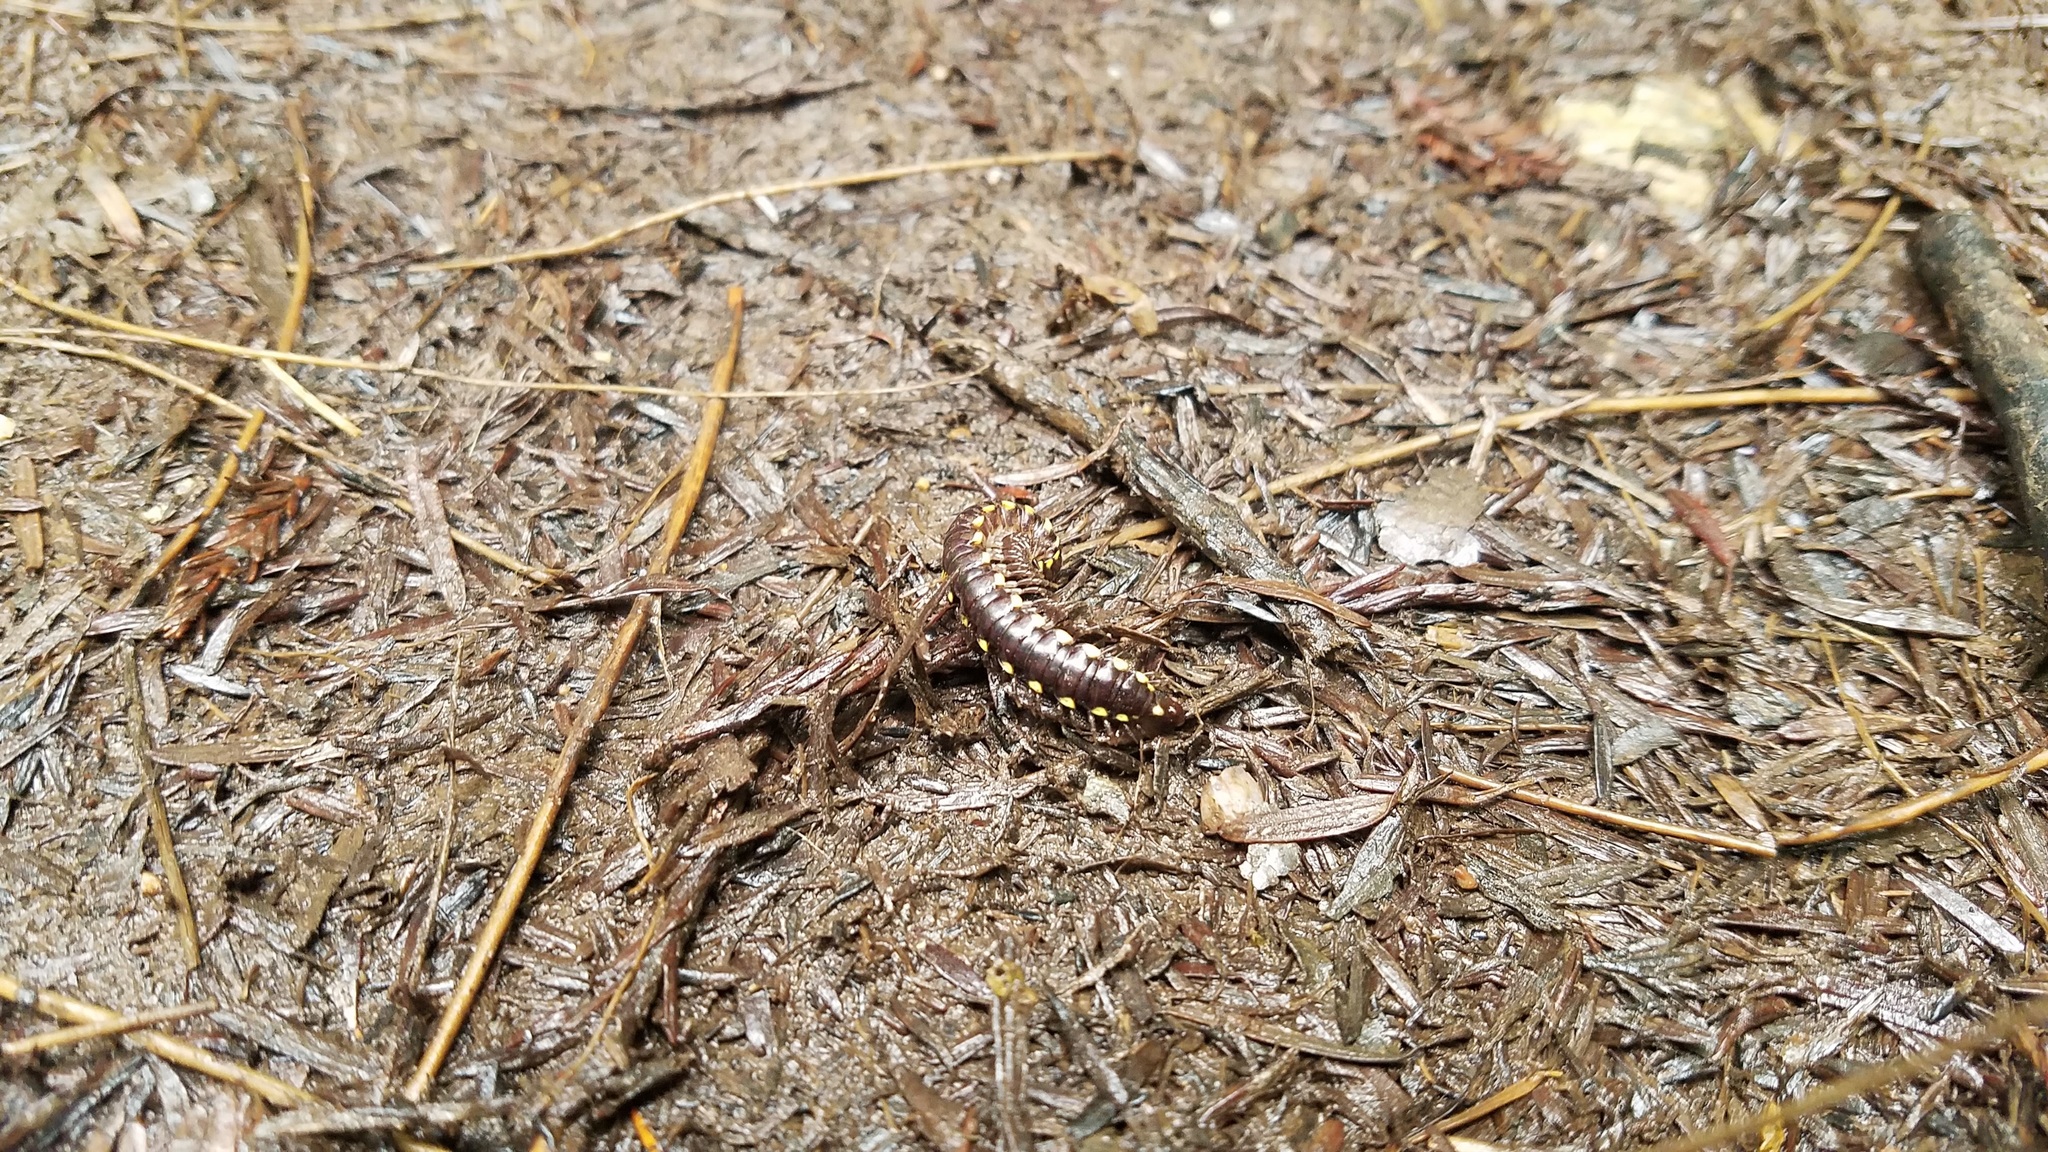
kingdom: Animalia
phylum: Arthropoda
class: Diplopoda
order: Polydesmida
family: Xystodesmidae
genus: Harpaphe
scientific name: Harpaphe haydeniana
